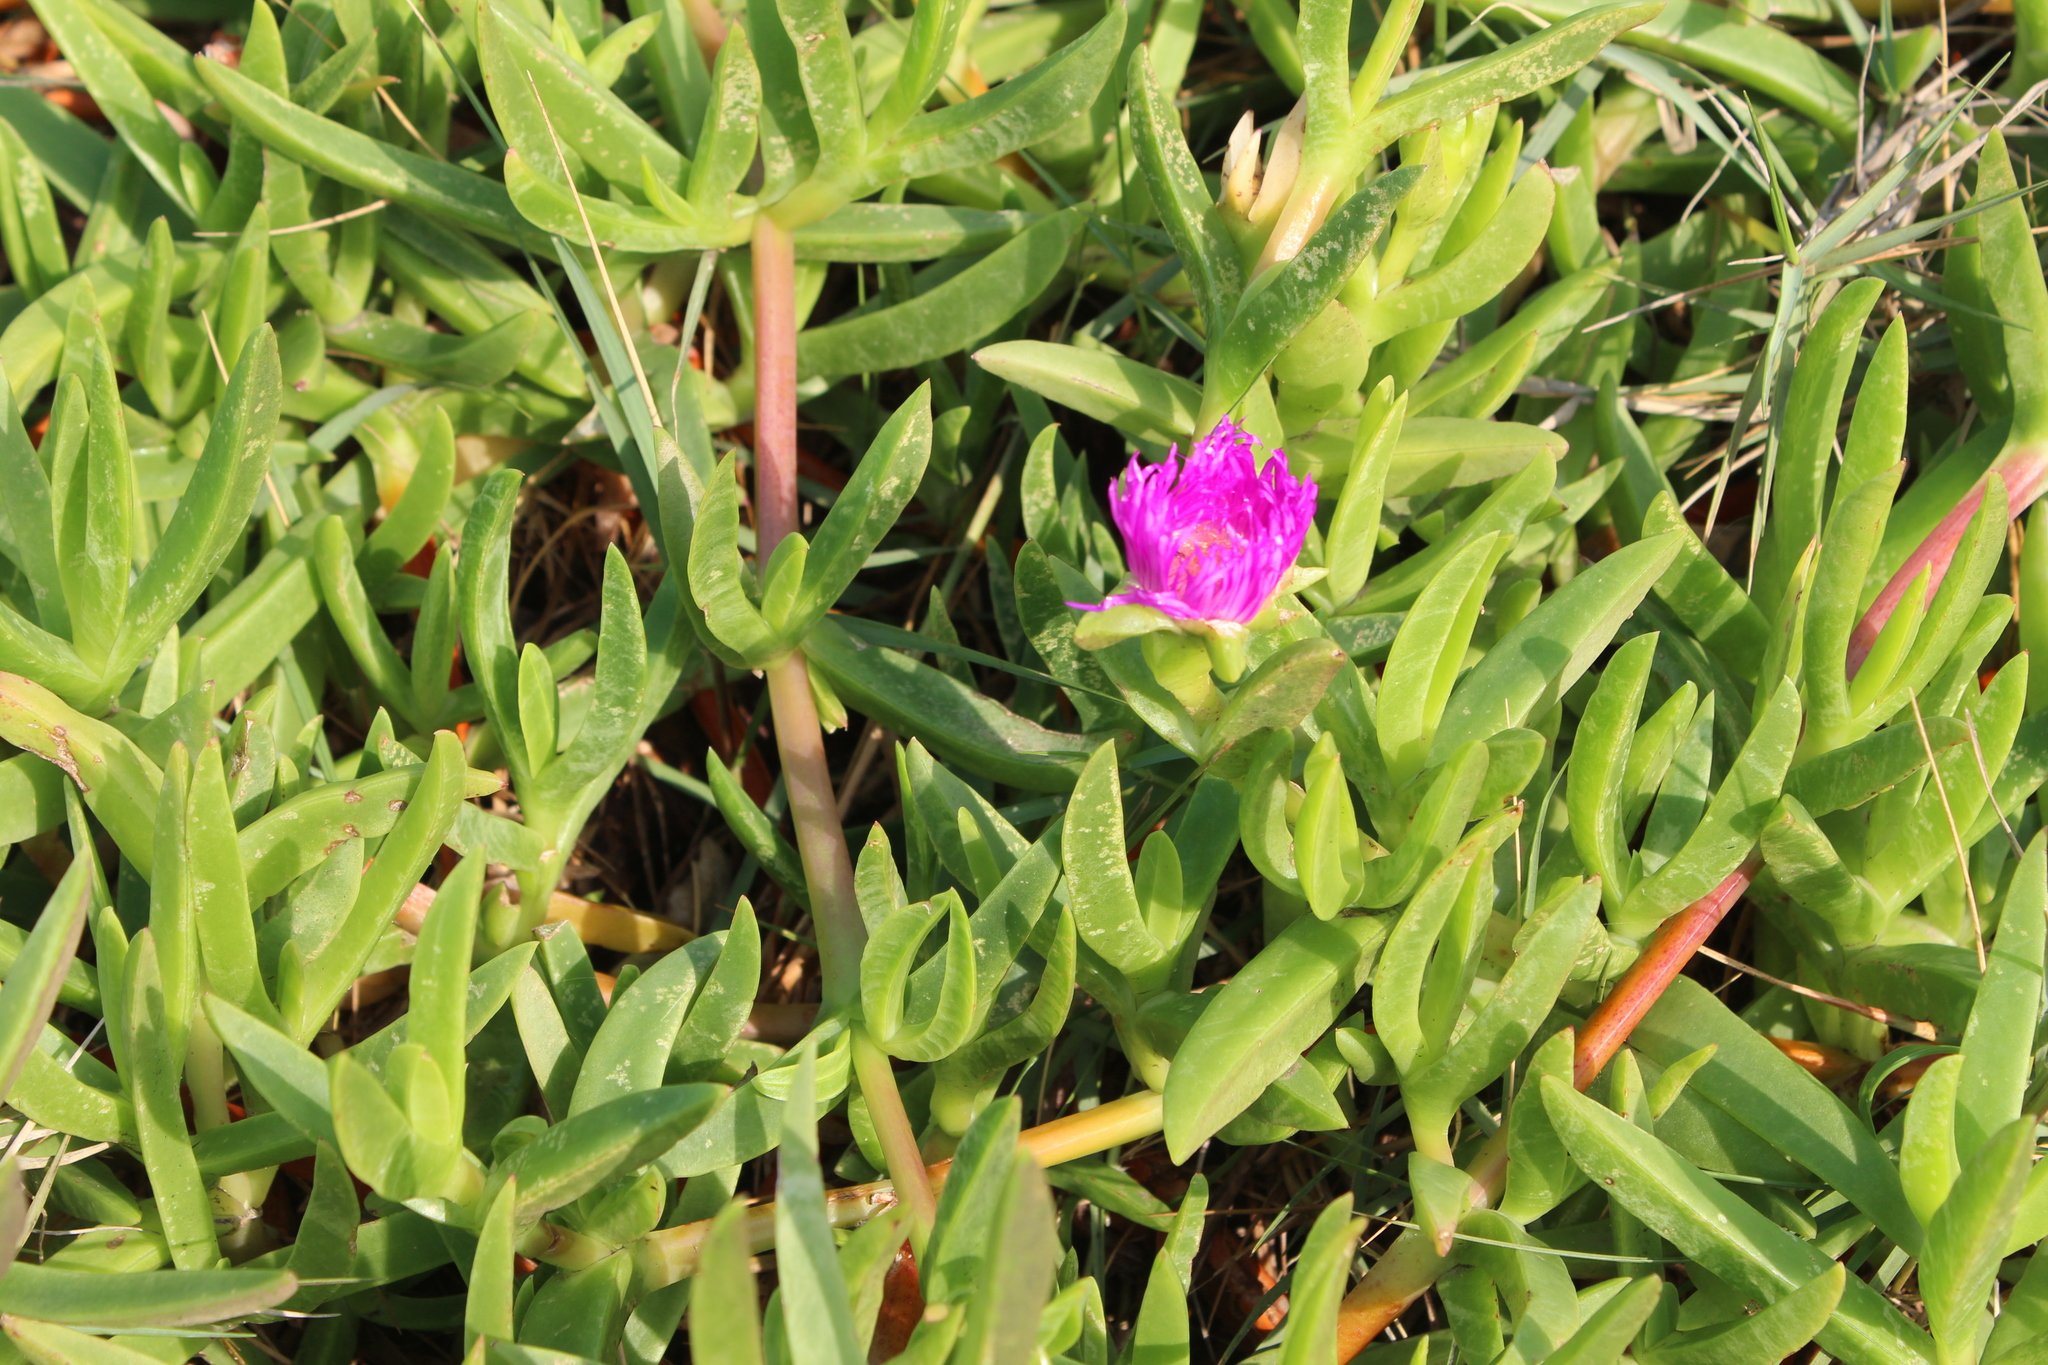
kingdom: Plantae
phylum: Tracheophyta
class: Magnoliopsida
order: Caryophyllales
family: Aizoaceae
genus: Carpobrotus
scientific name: Carpobrotus dimidiatus
